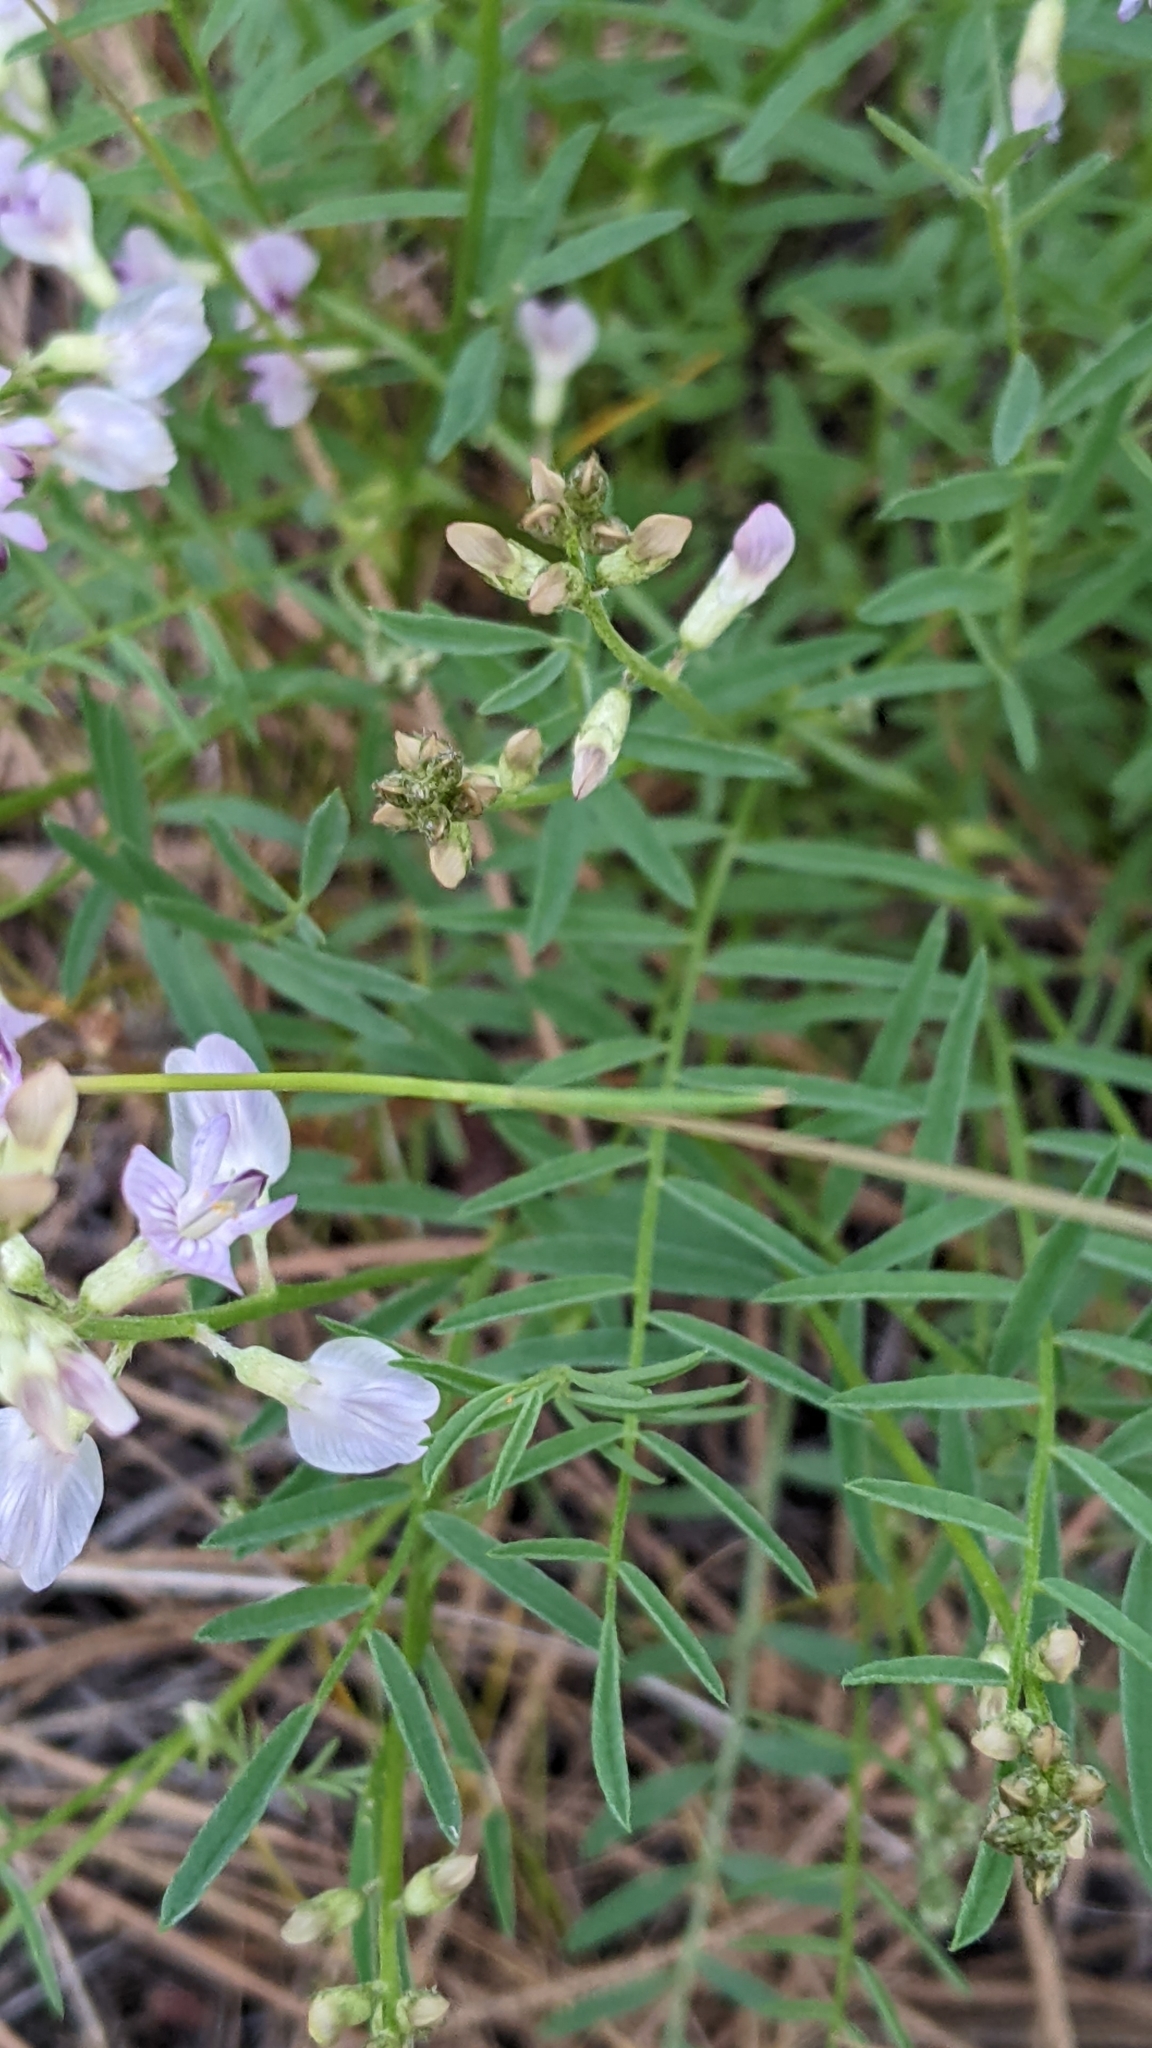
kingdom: Plantae
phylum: Tracheophyta
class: Magnoliopsida
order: Fabales
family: Fabaceae
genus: Astragalus
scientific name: Astragalus miser
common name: Timber milkvetch
